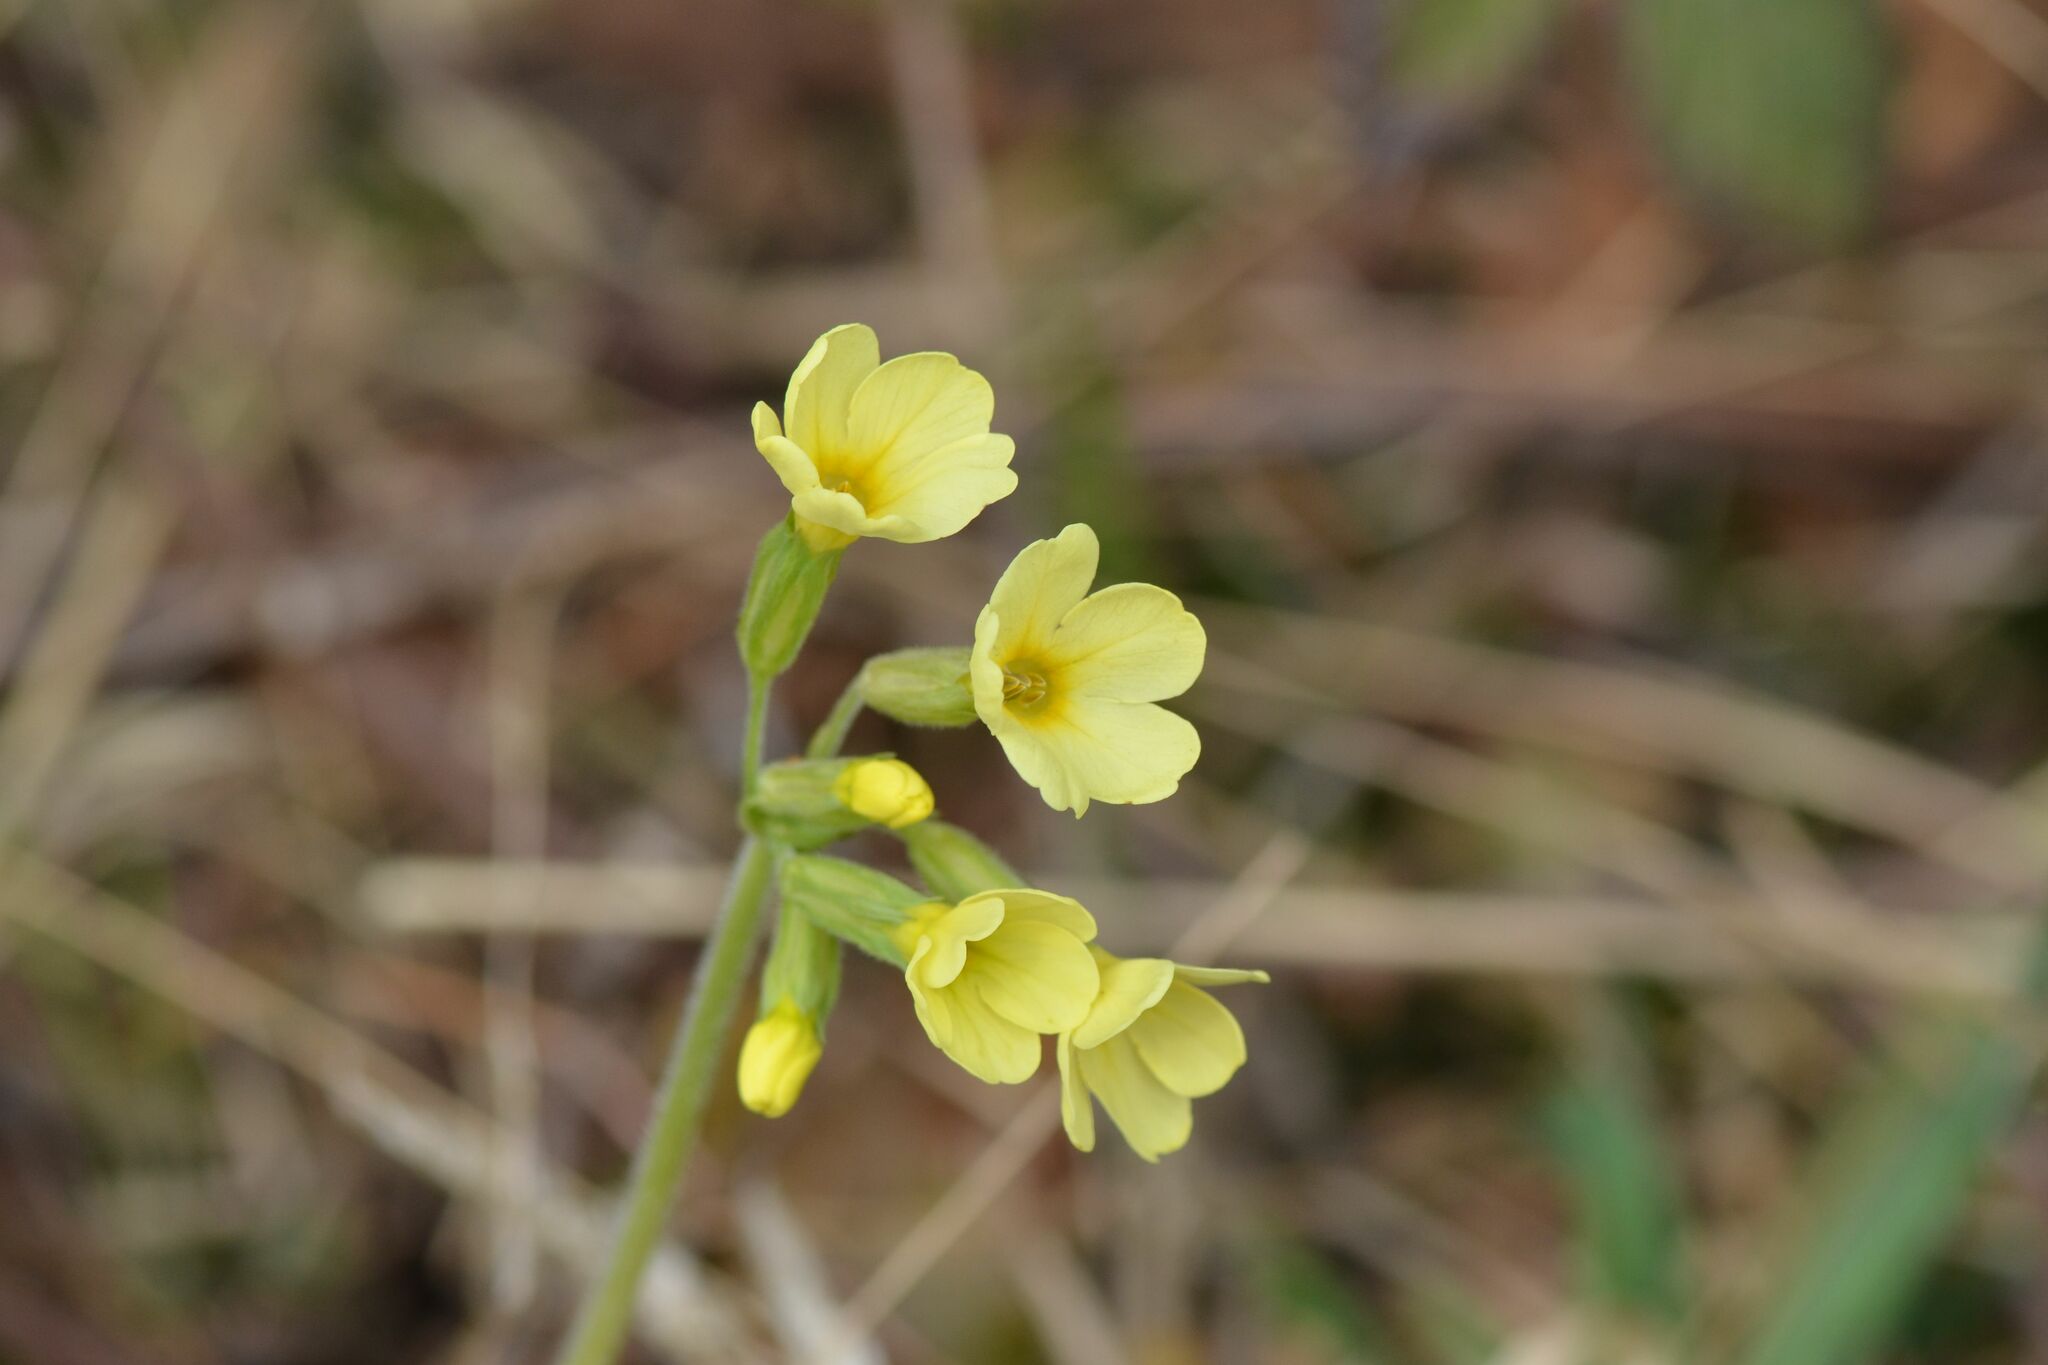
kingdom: Plantae
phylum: Tracheophyta
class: Magnoliopsida
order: Ericales
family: Primulaceae
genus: Primula
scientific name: Primula elatior
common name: Oxlip
